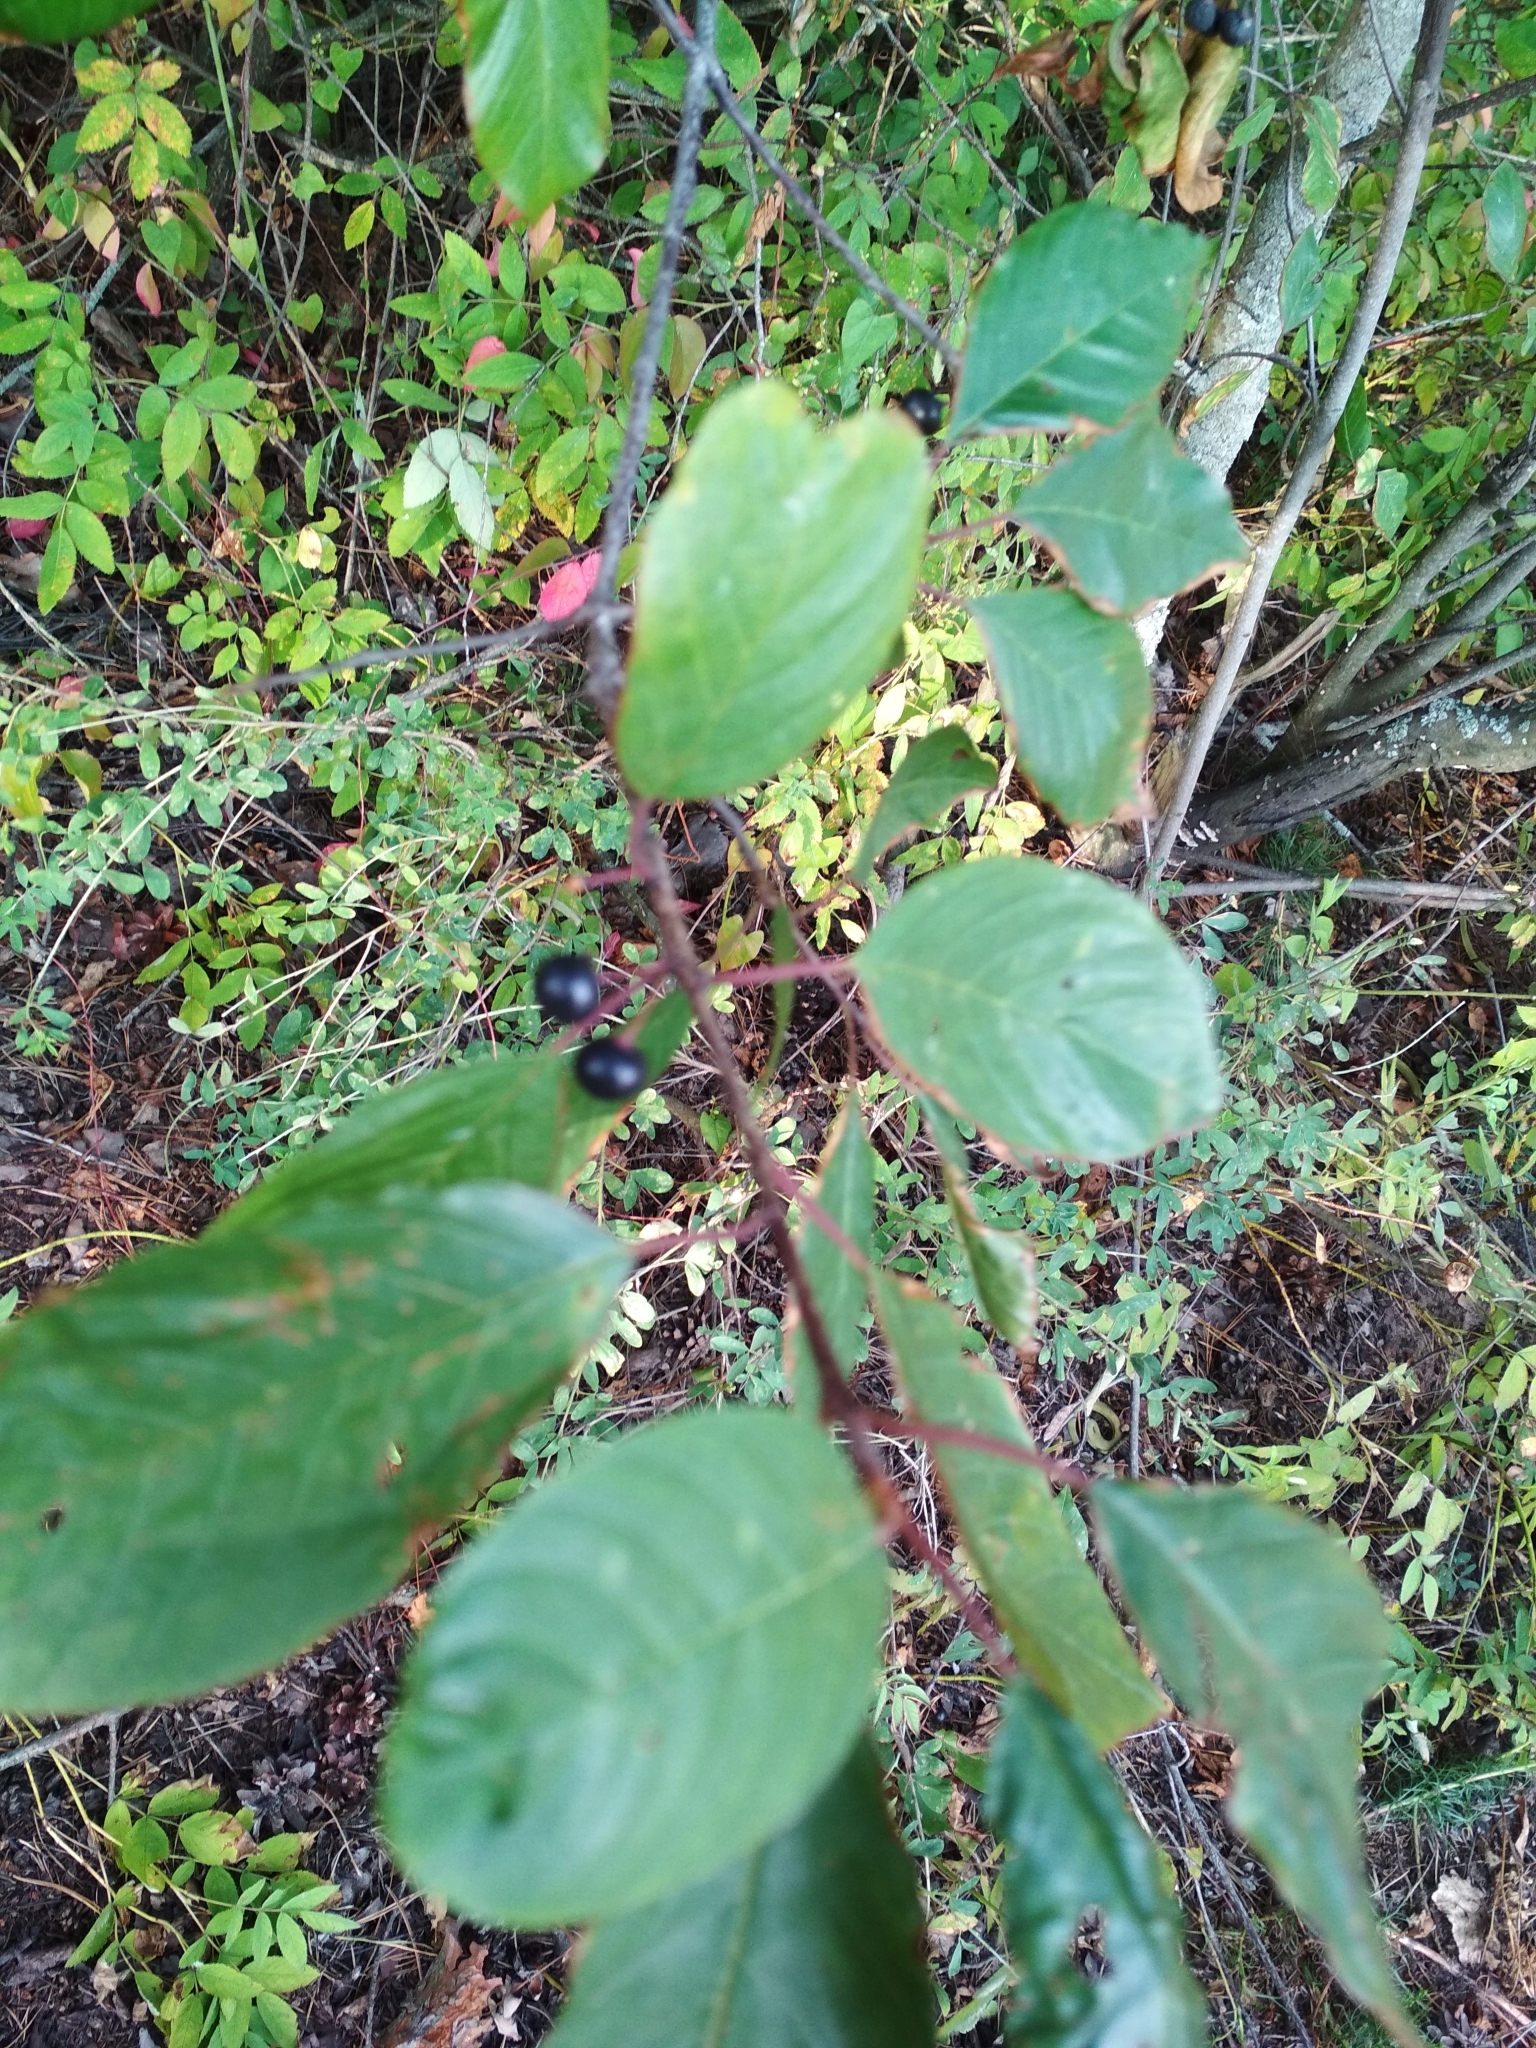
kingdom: Plantae
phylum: Tracheophyta
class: Magnoliopsida
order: Rosales
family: Rhamnaceae
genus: Frangula
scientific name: Frangula alnus
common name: Alder buckthorn
